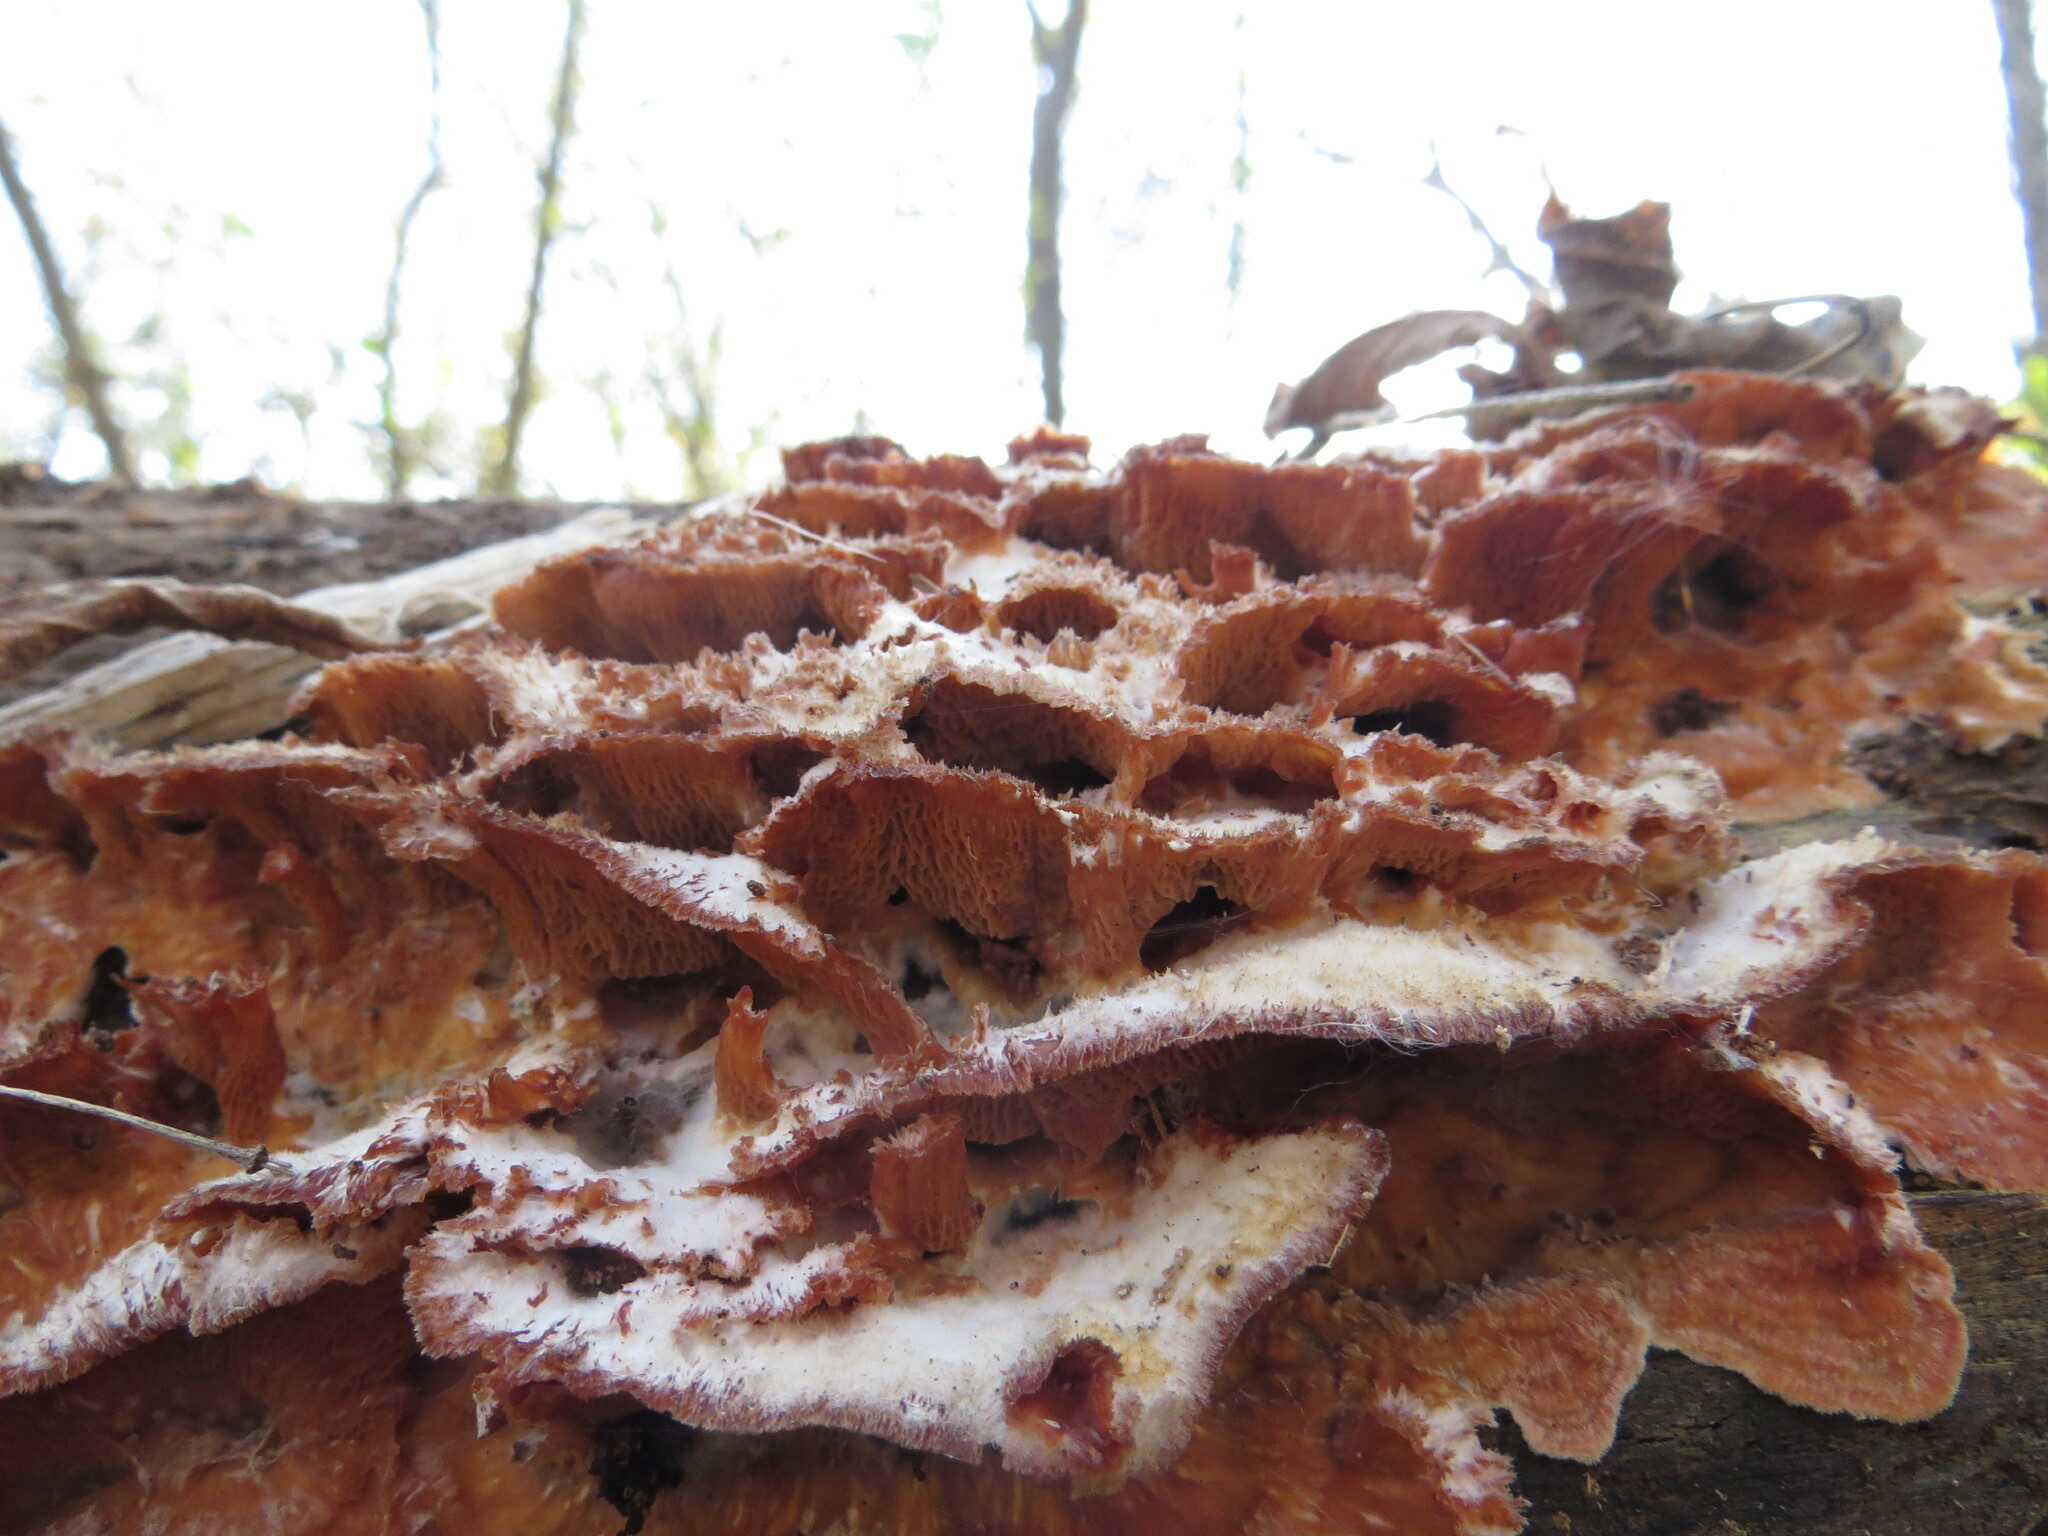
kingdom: Fungi
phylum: Basidiomycota
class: Agaricomycetes
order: Polyporales
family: Meruliaceae
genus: Phlebia
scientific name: Phlebia tremellosa
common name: Jelly rot
